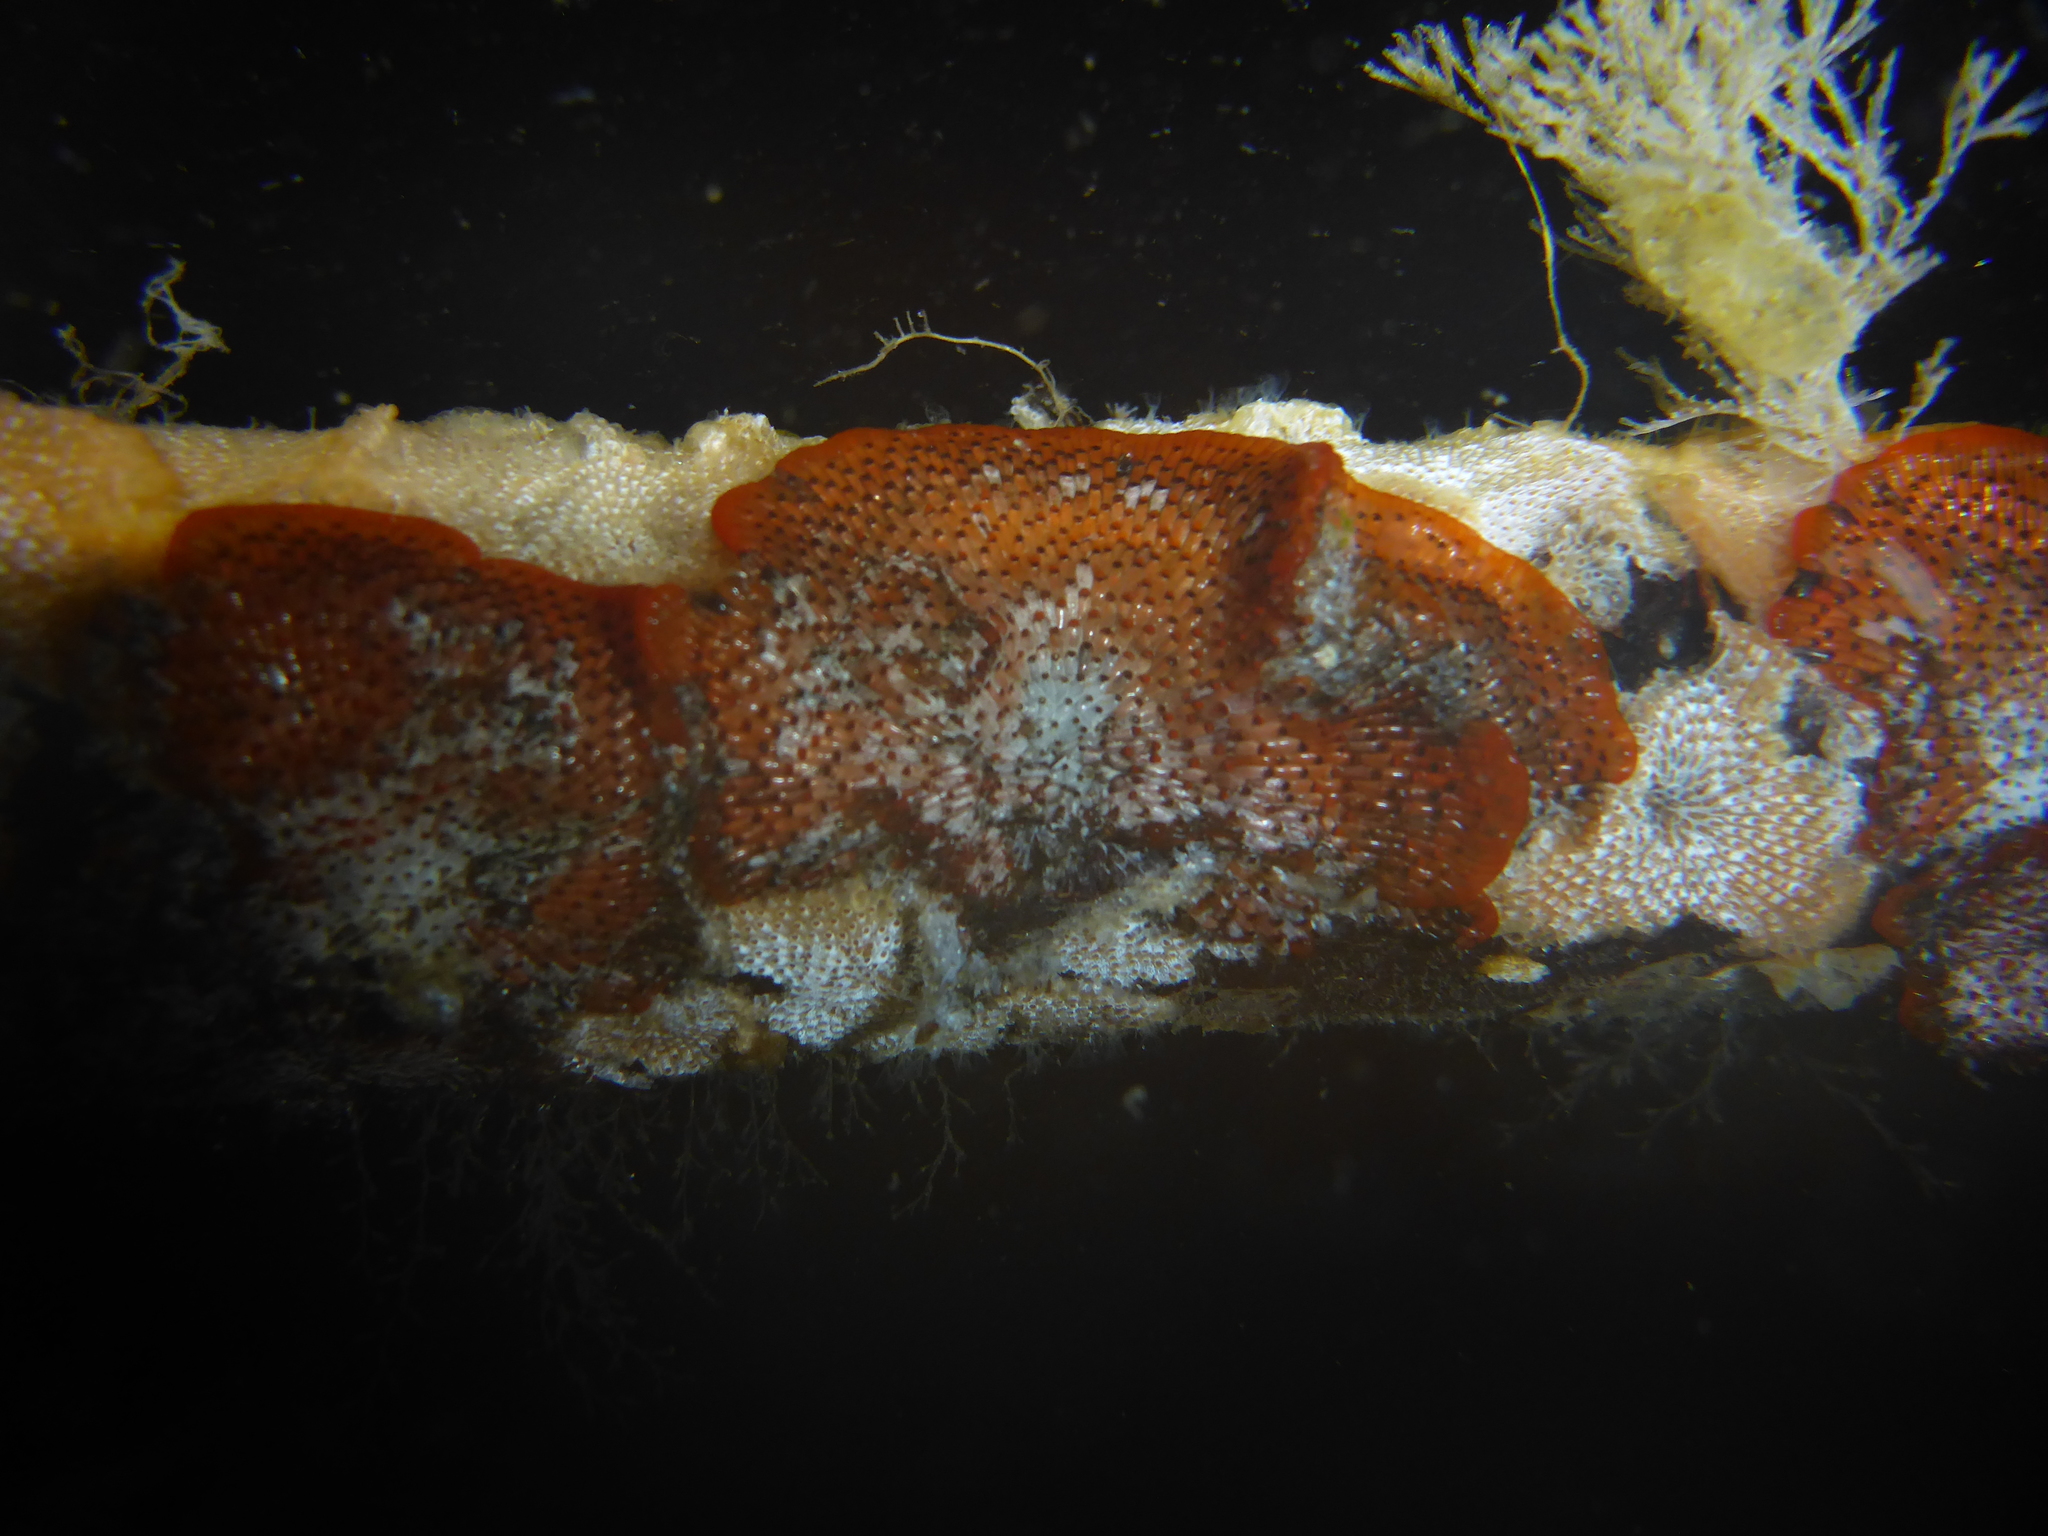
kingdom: Animalia
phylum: Bryozoa
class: Gymnolaemata
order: Cheilostomatida
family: Watersiporidae
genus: Watersipora
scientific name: Watersipora subatra
